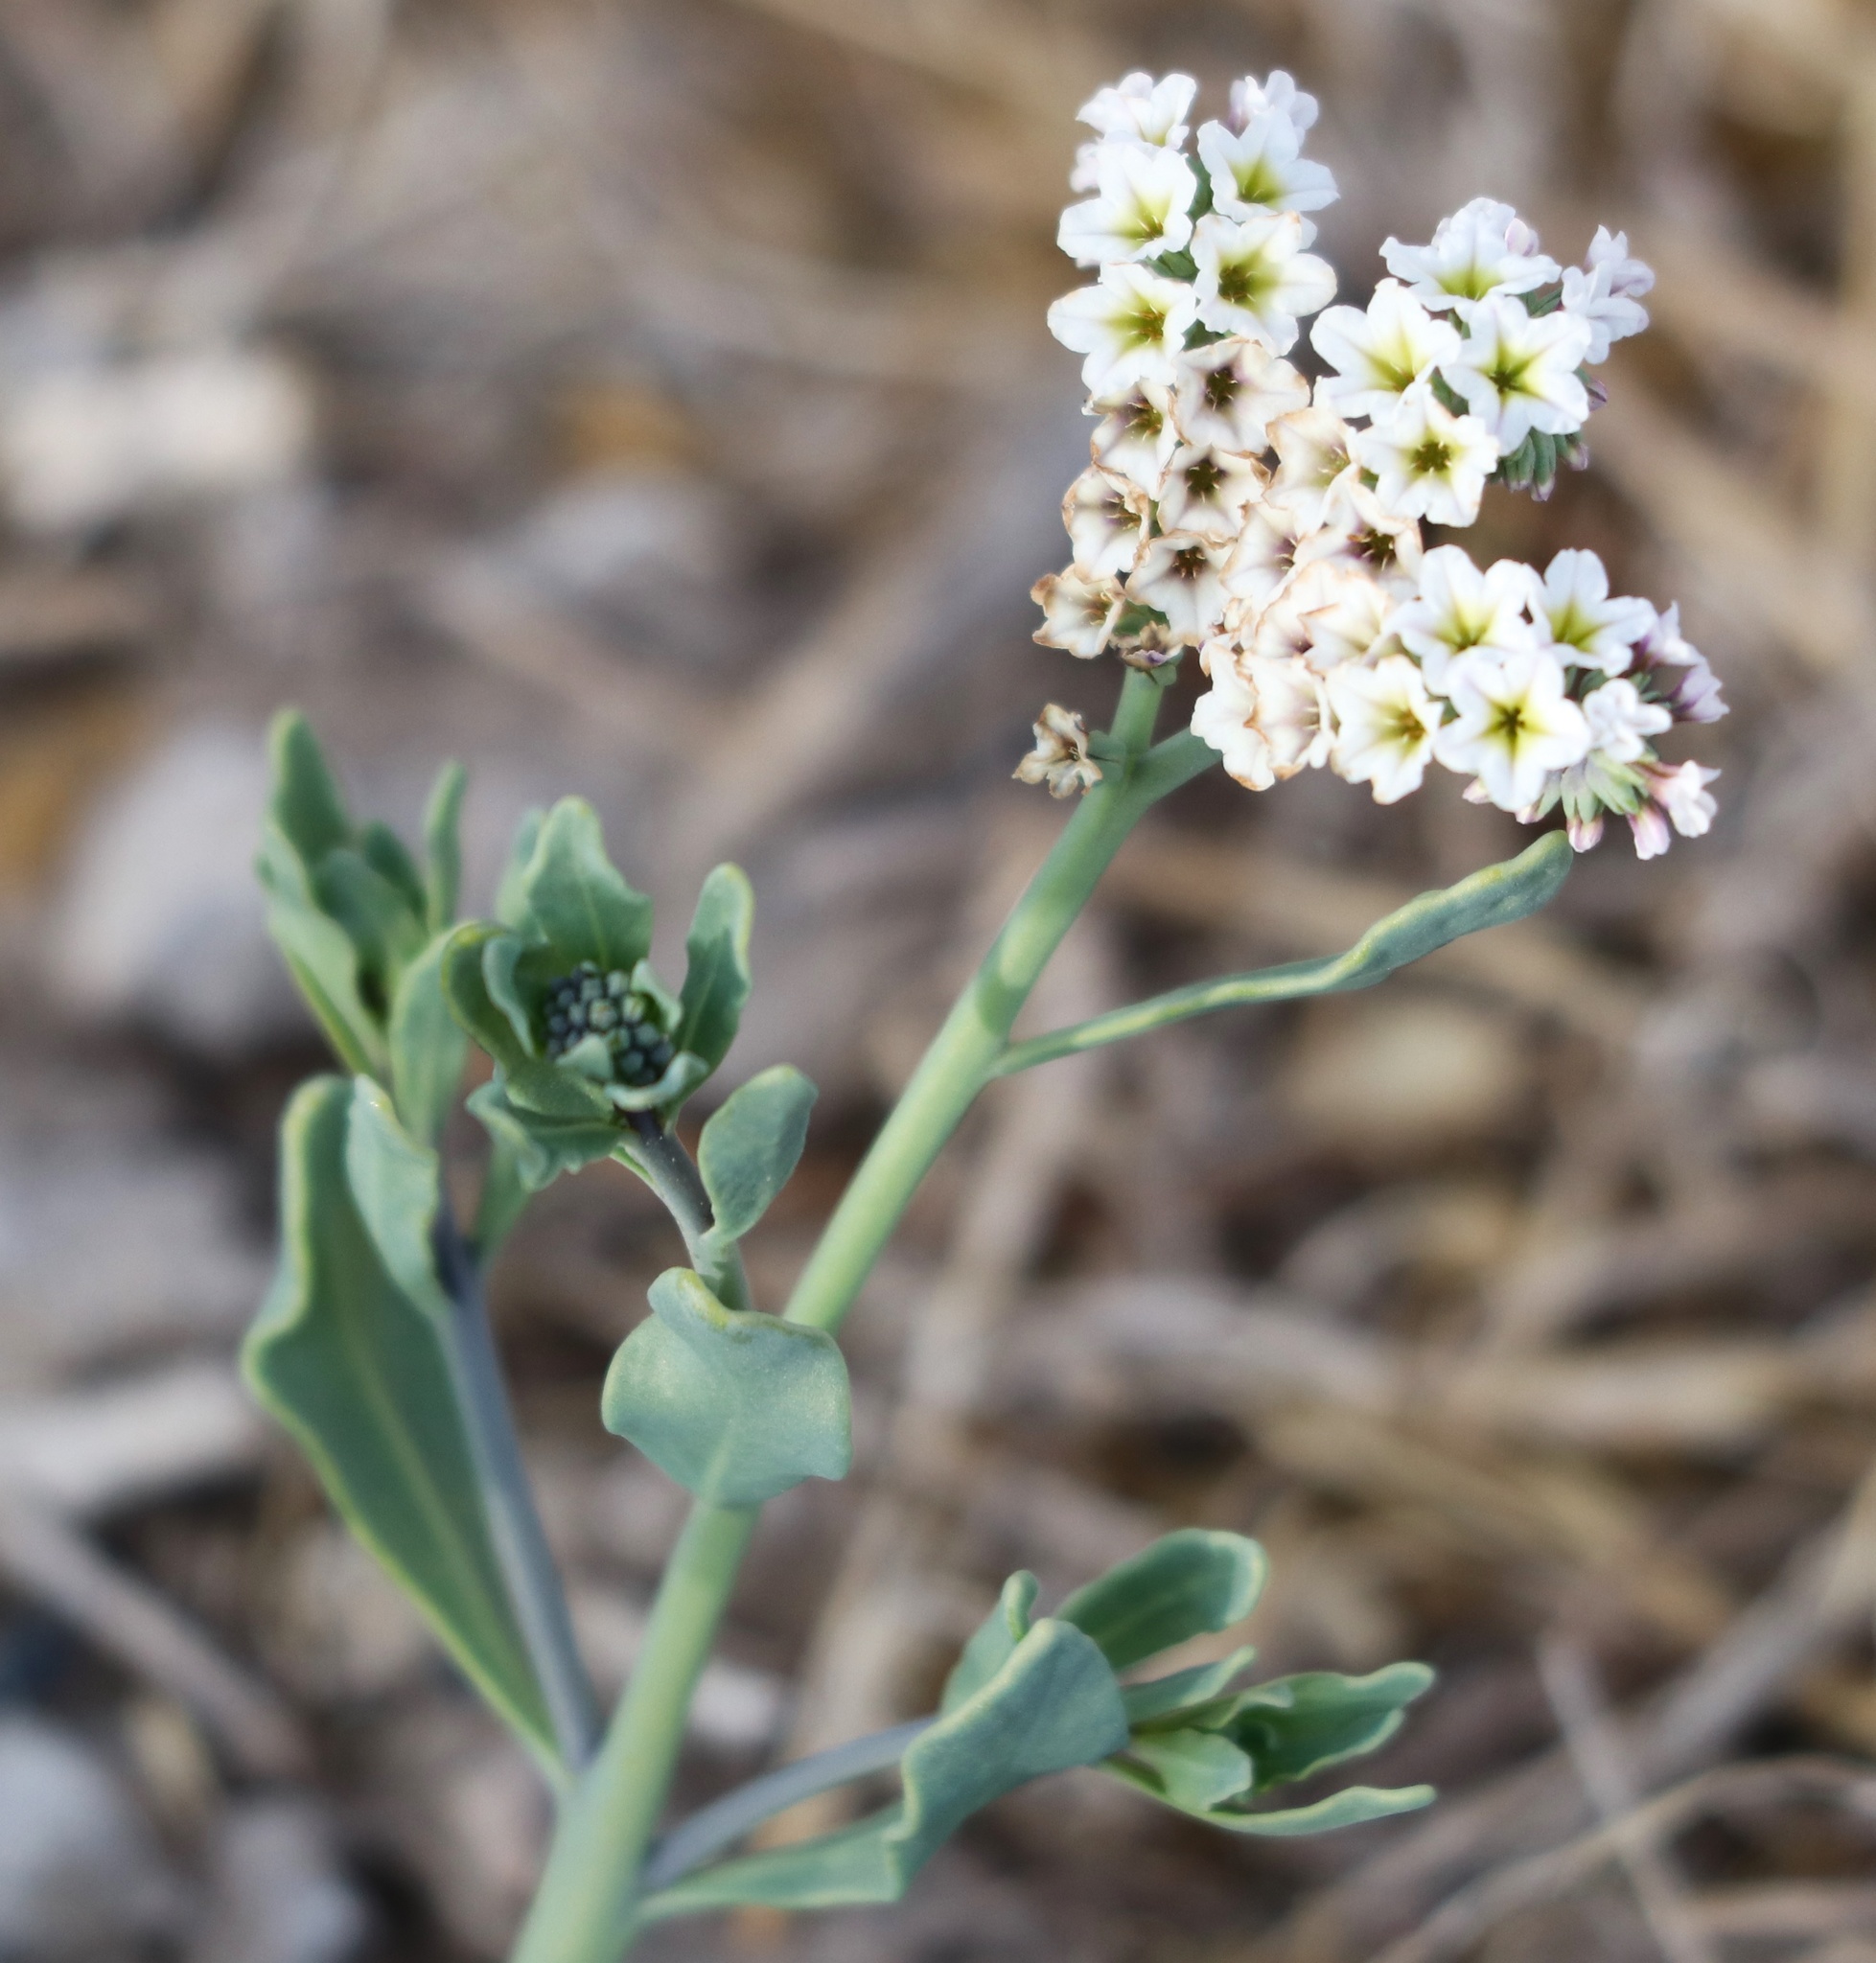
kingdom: Plantae
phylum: Tracheophyta
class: Magnoliopsida
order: Boraginales
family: Heliotropiaceae
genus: Heliotropium
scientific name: Heliotropium curassavicum
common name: Seaside heliotrope
